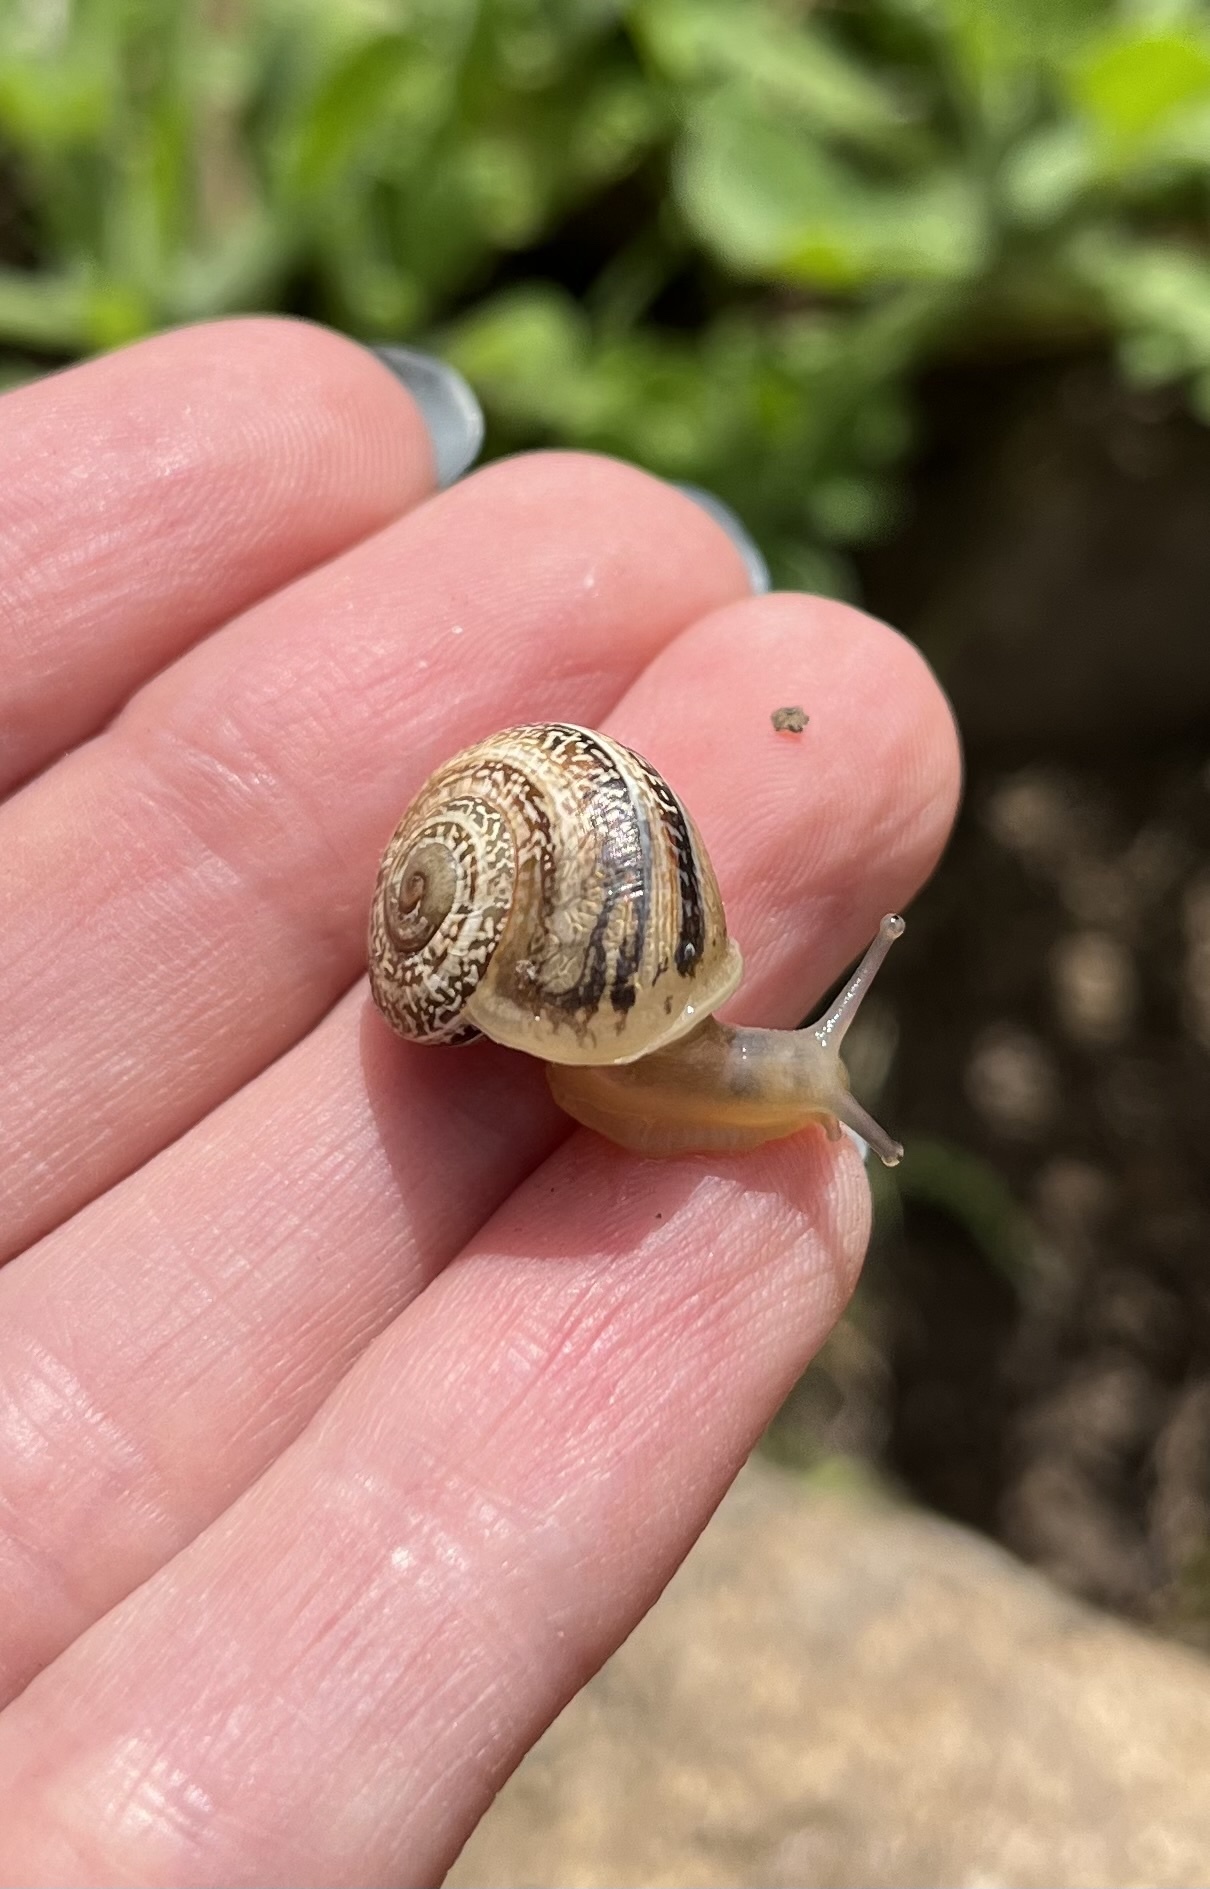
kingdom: Animalia
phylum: Mollusca
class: Gastropoda
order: Stylommatophora
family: Helicidae
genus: Otala
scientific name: Otala lactea
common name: Milk snail
